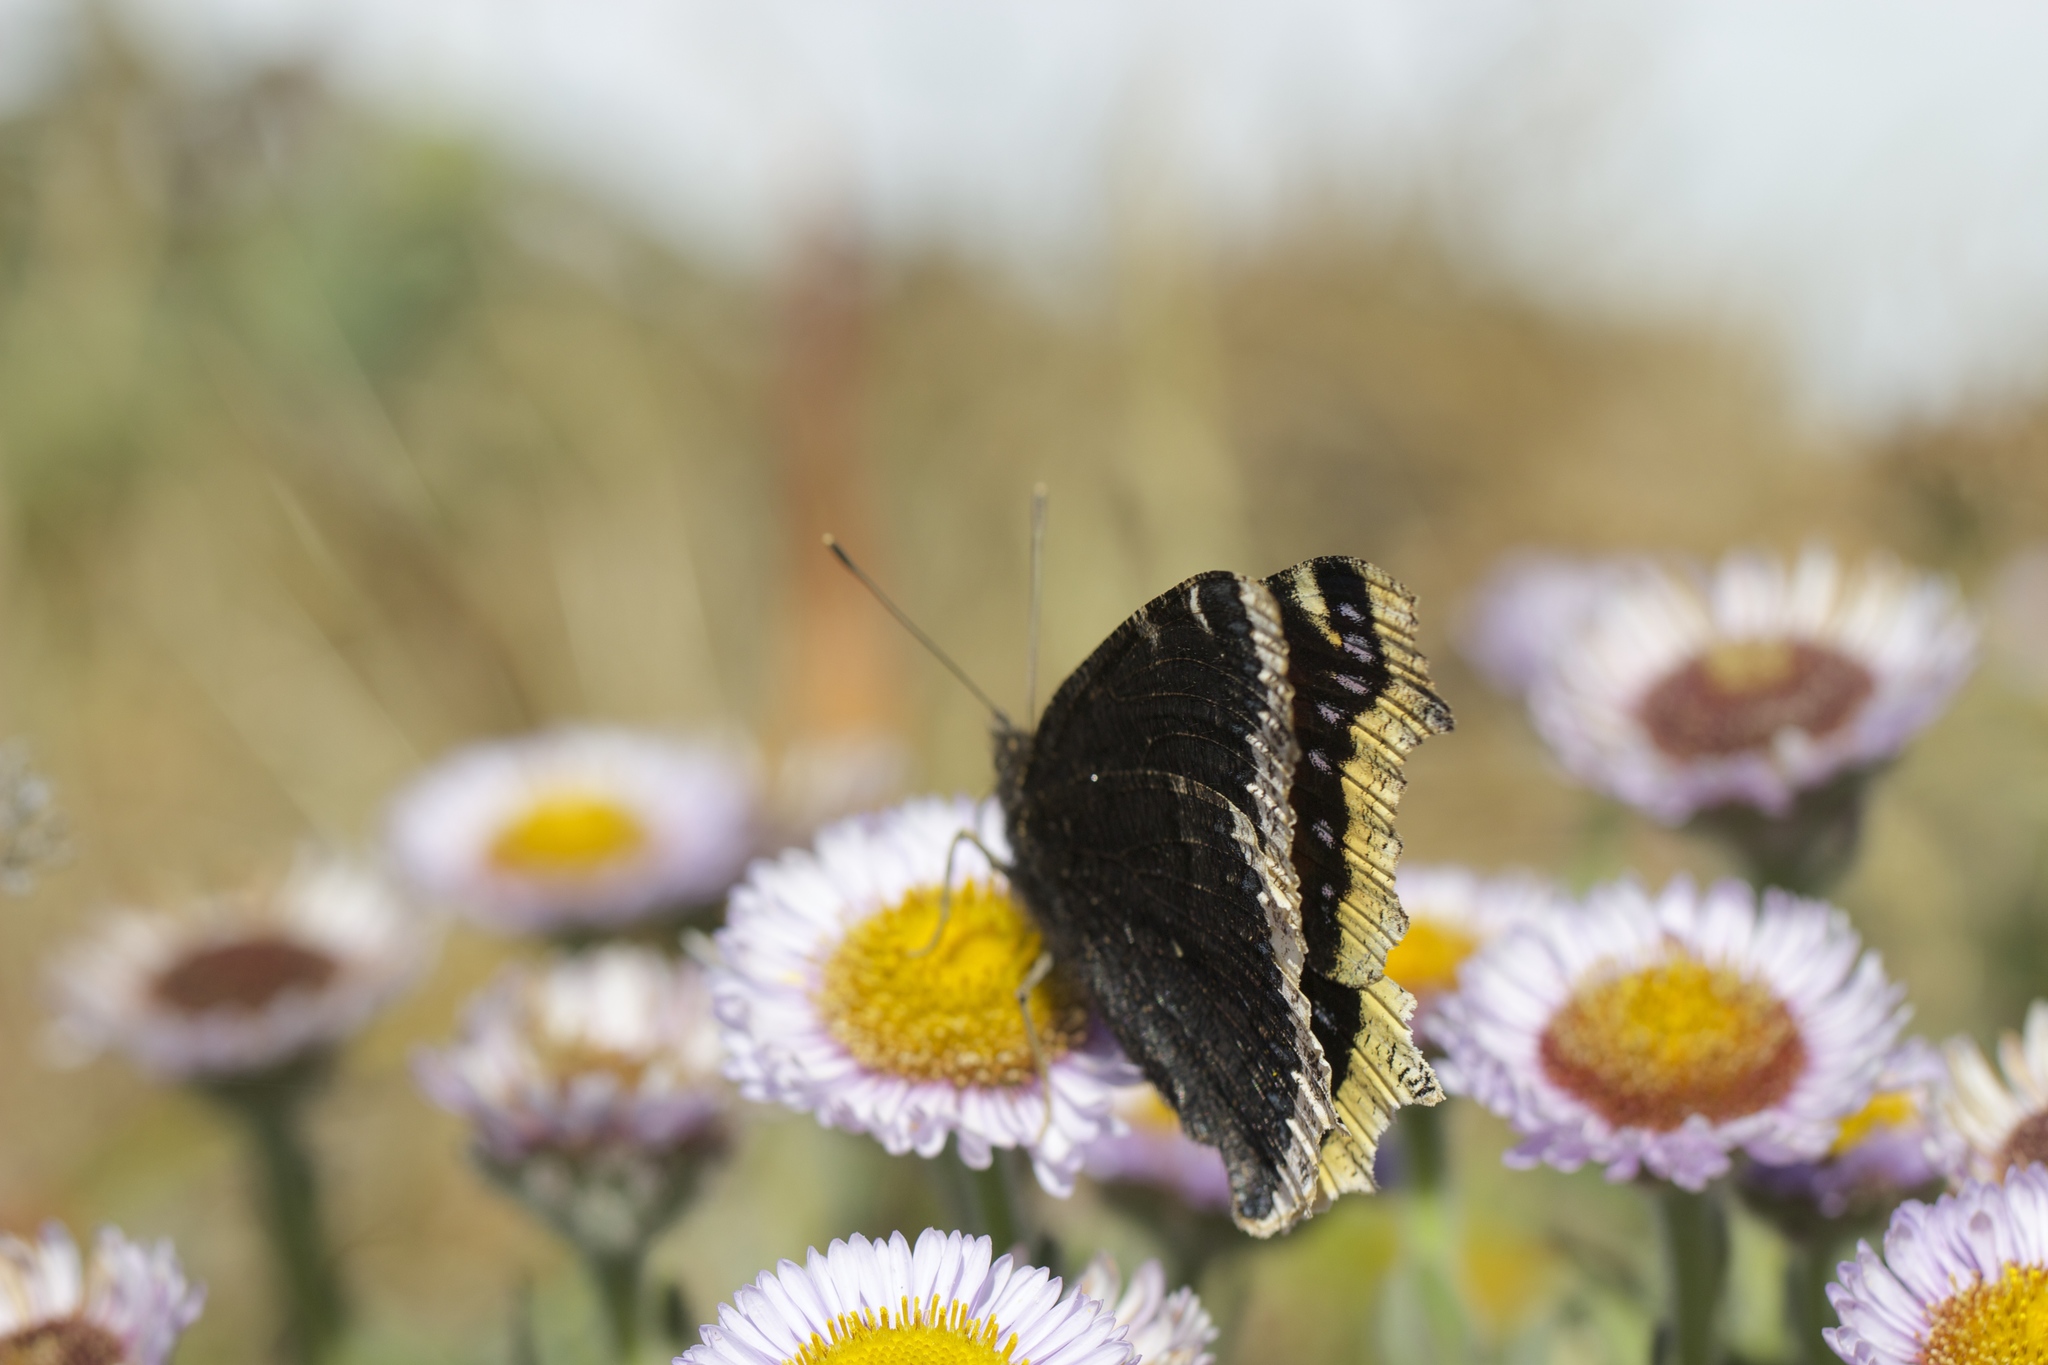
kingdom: Animalia
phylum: Arthropoda
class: Insecta
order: Lepidoptera
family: Nymphalidae
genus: Nymphalis
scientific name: Nymphalis antiopa
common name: Camberwell beauty
